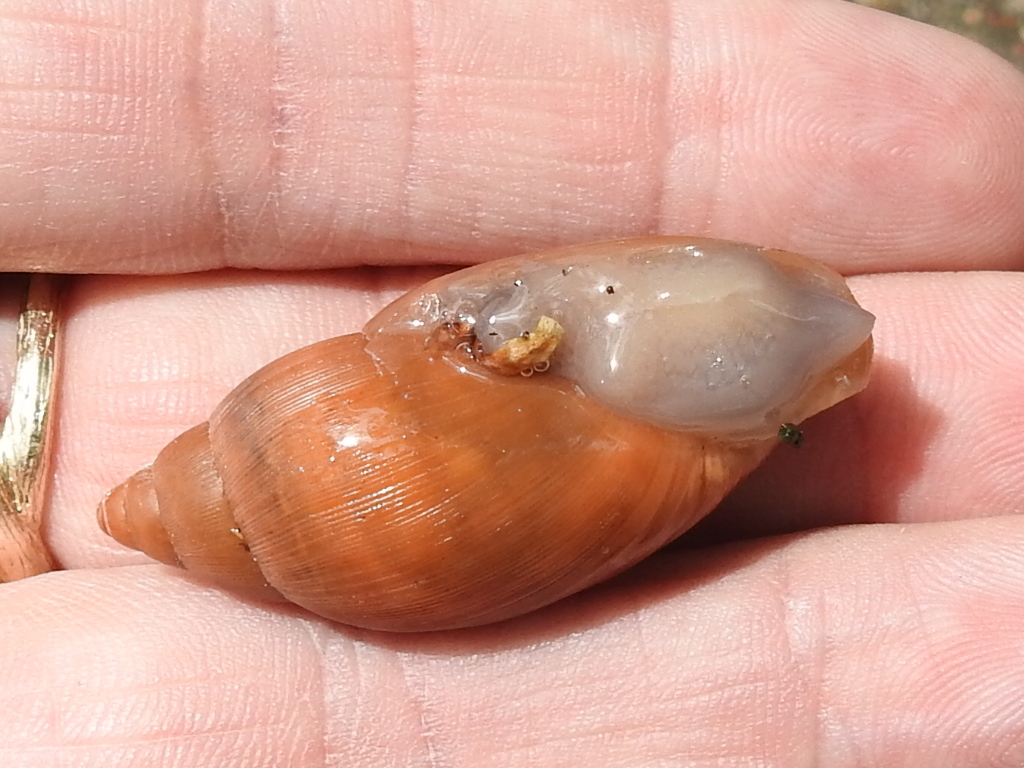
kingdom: Animalia
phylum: Mollusca
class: Gastropoda
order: Stylommatophora
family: Spiraxidae
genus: Euglandina
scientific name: Euglandina rosea
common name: Rosy wolfsnail
